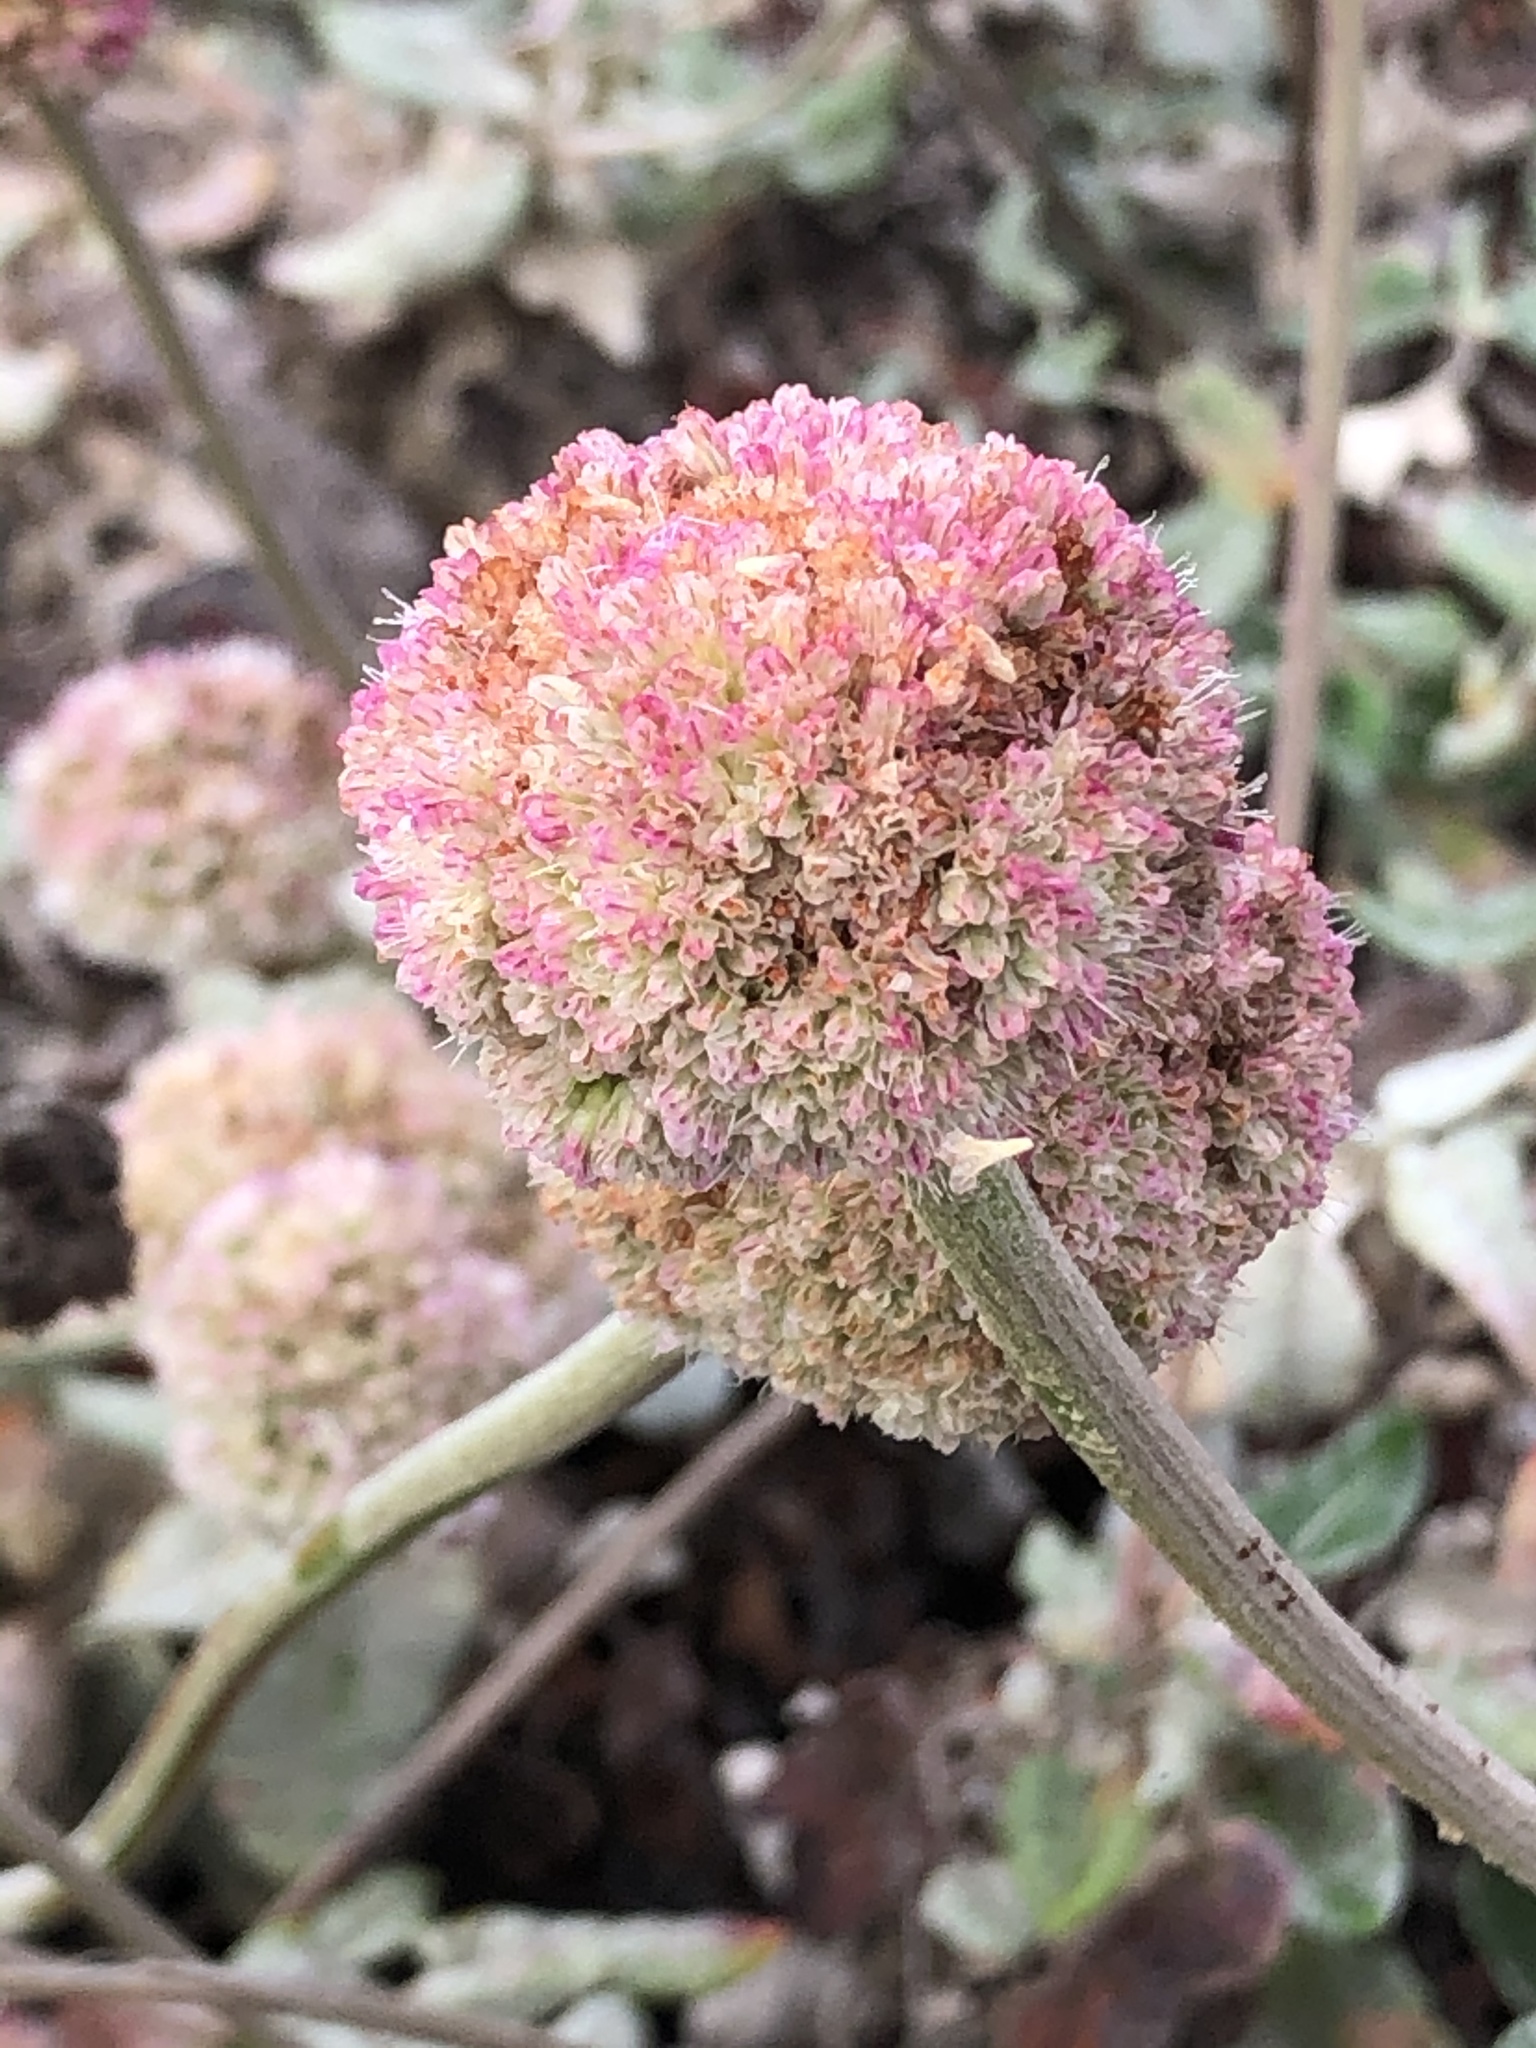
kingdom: Plantae
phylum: Tracheophyta
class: Magnoliopsida
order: Caryophyllales
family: Polygonaceae
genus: Eriogonum
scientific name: Eriogonum latifolium
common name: Seaside wild buckwheat
